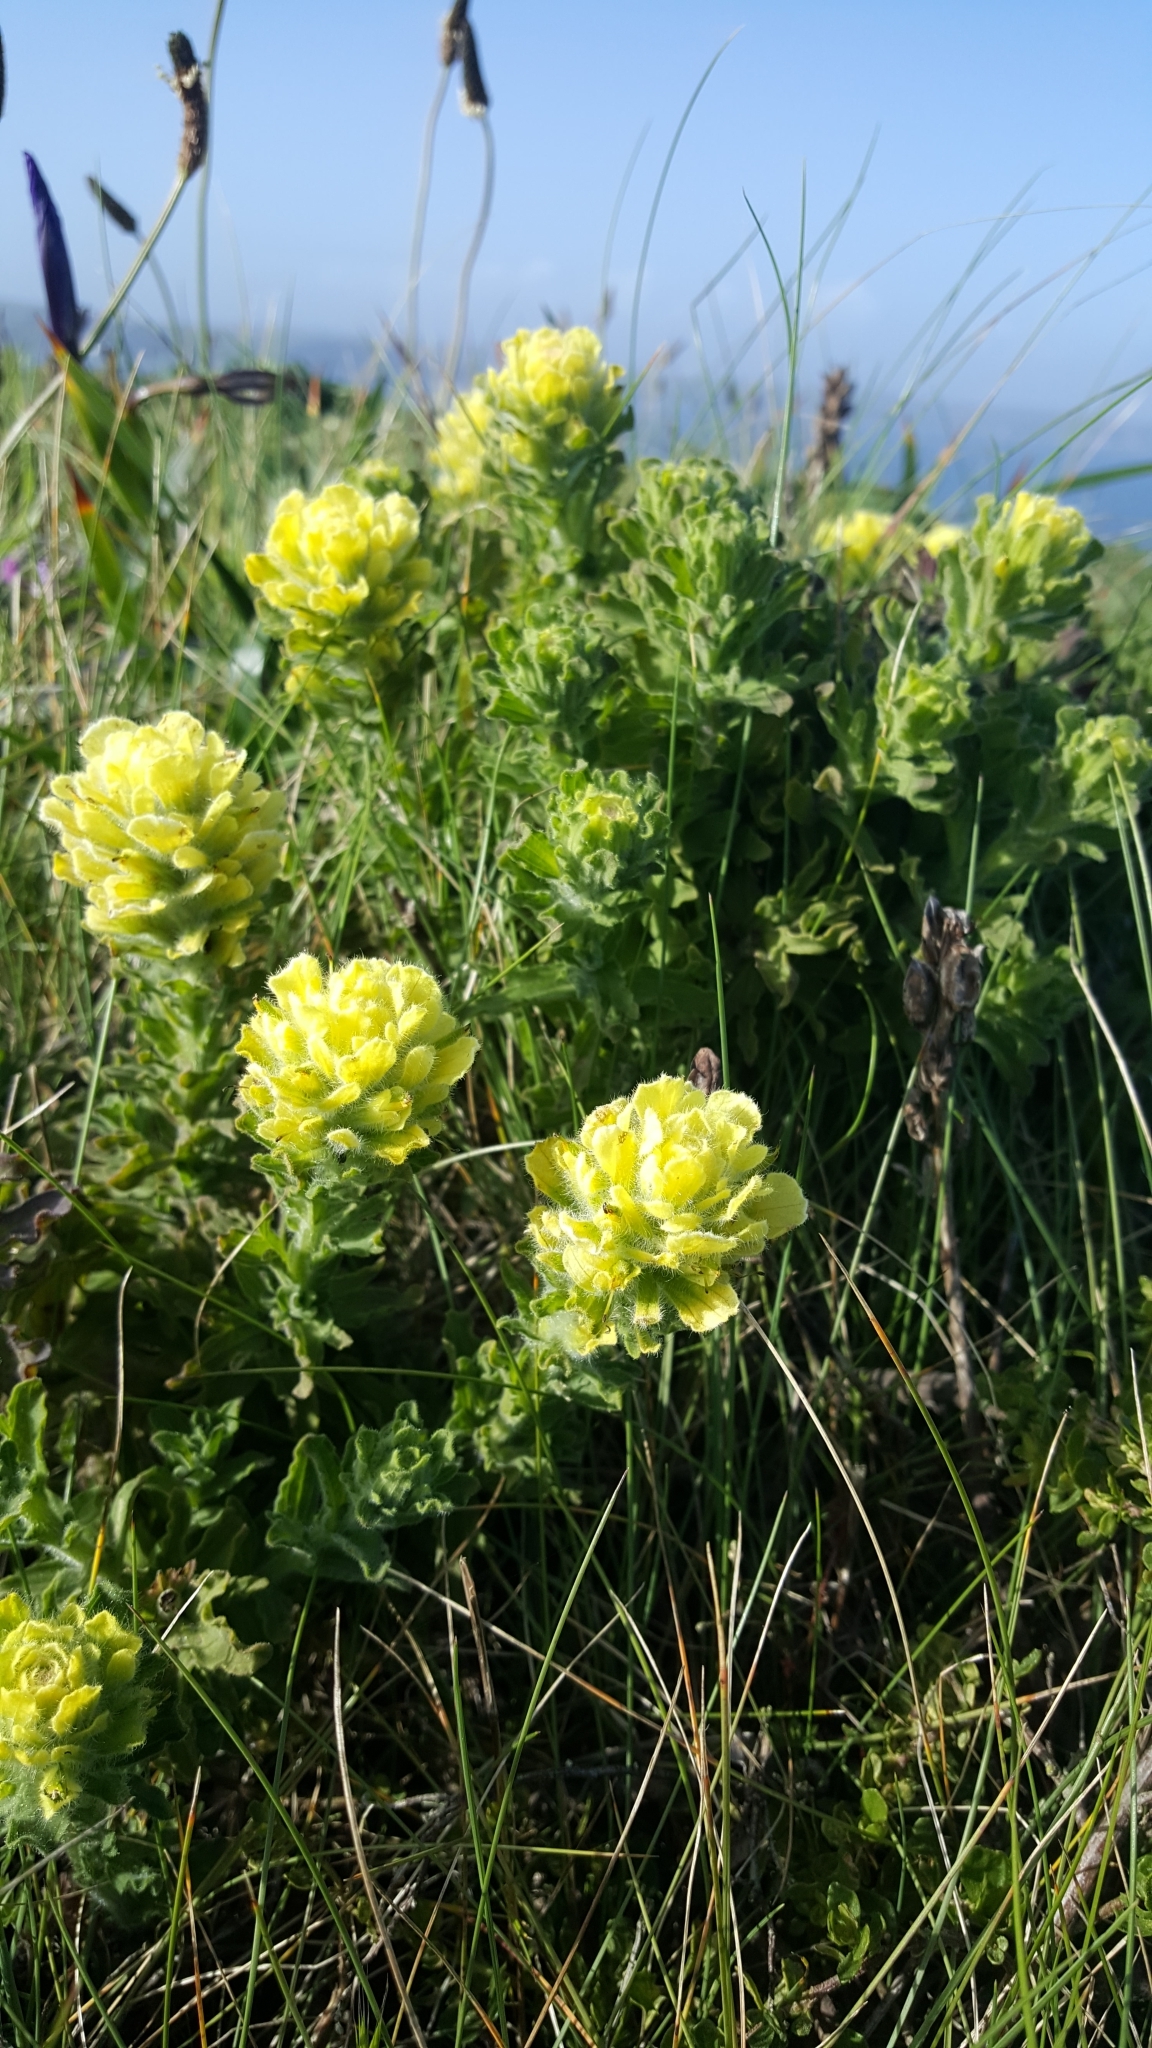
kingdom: Plantae
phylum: Tracheophyta
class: Magnoliopsida
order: Lamiales
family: Orobanchaceae
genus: Castilleja
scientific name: Castilleja wightii
